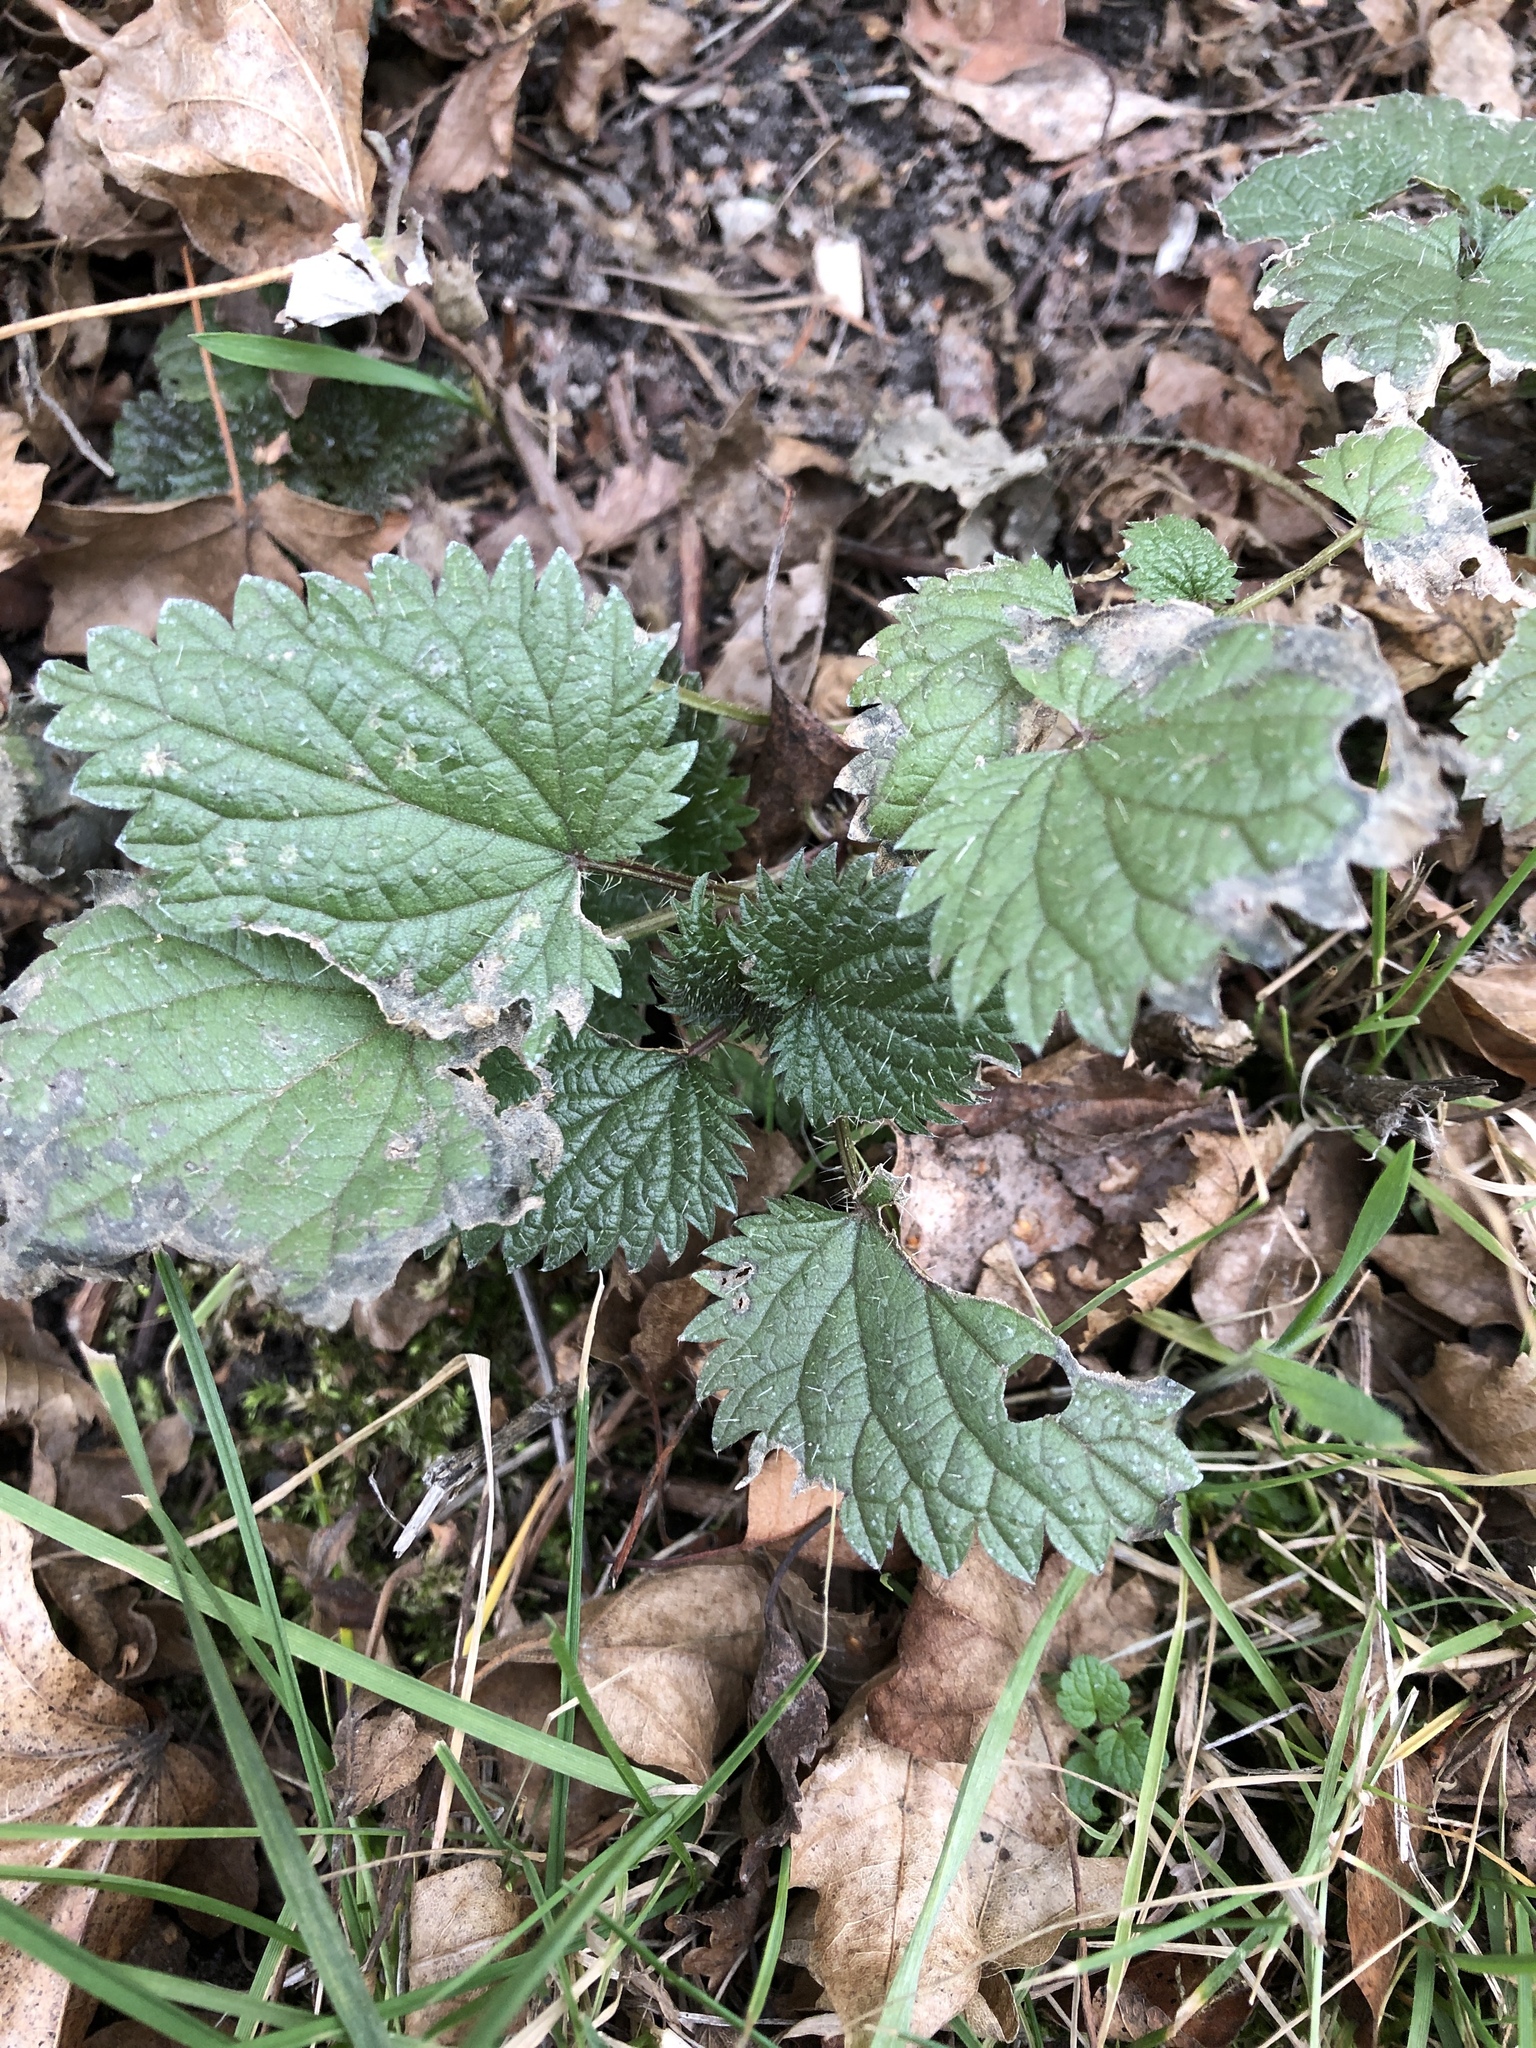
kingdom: Plantae
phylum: Tracheophyta
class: Magnoliopsida
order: Rosales
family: Urticaceae
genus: Urtica
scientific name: Urtica dioica
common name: Common nettle
